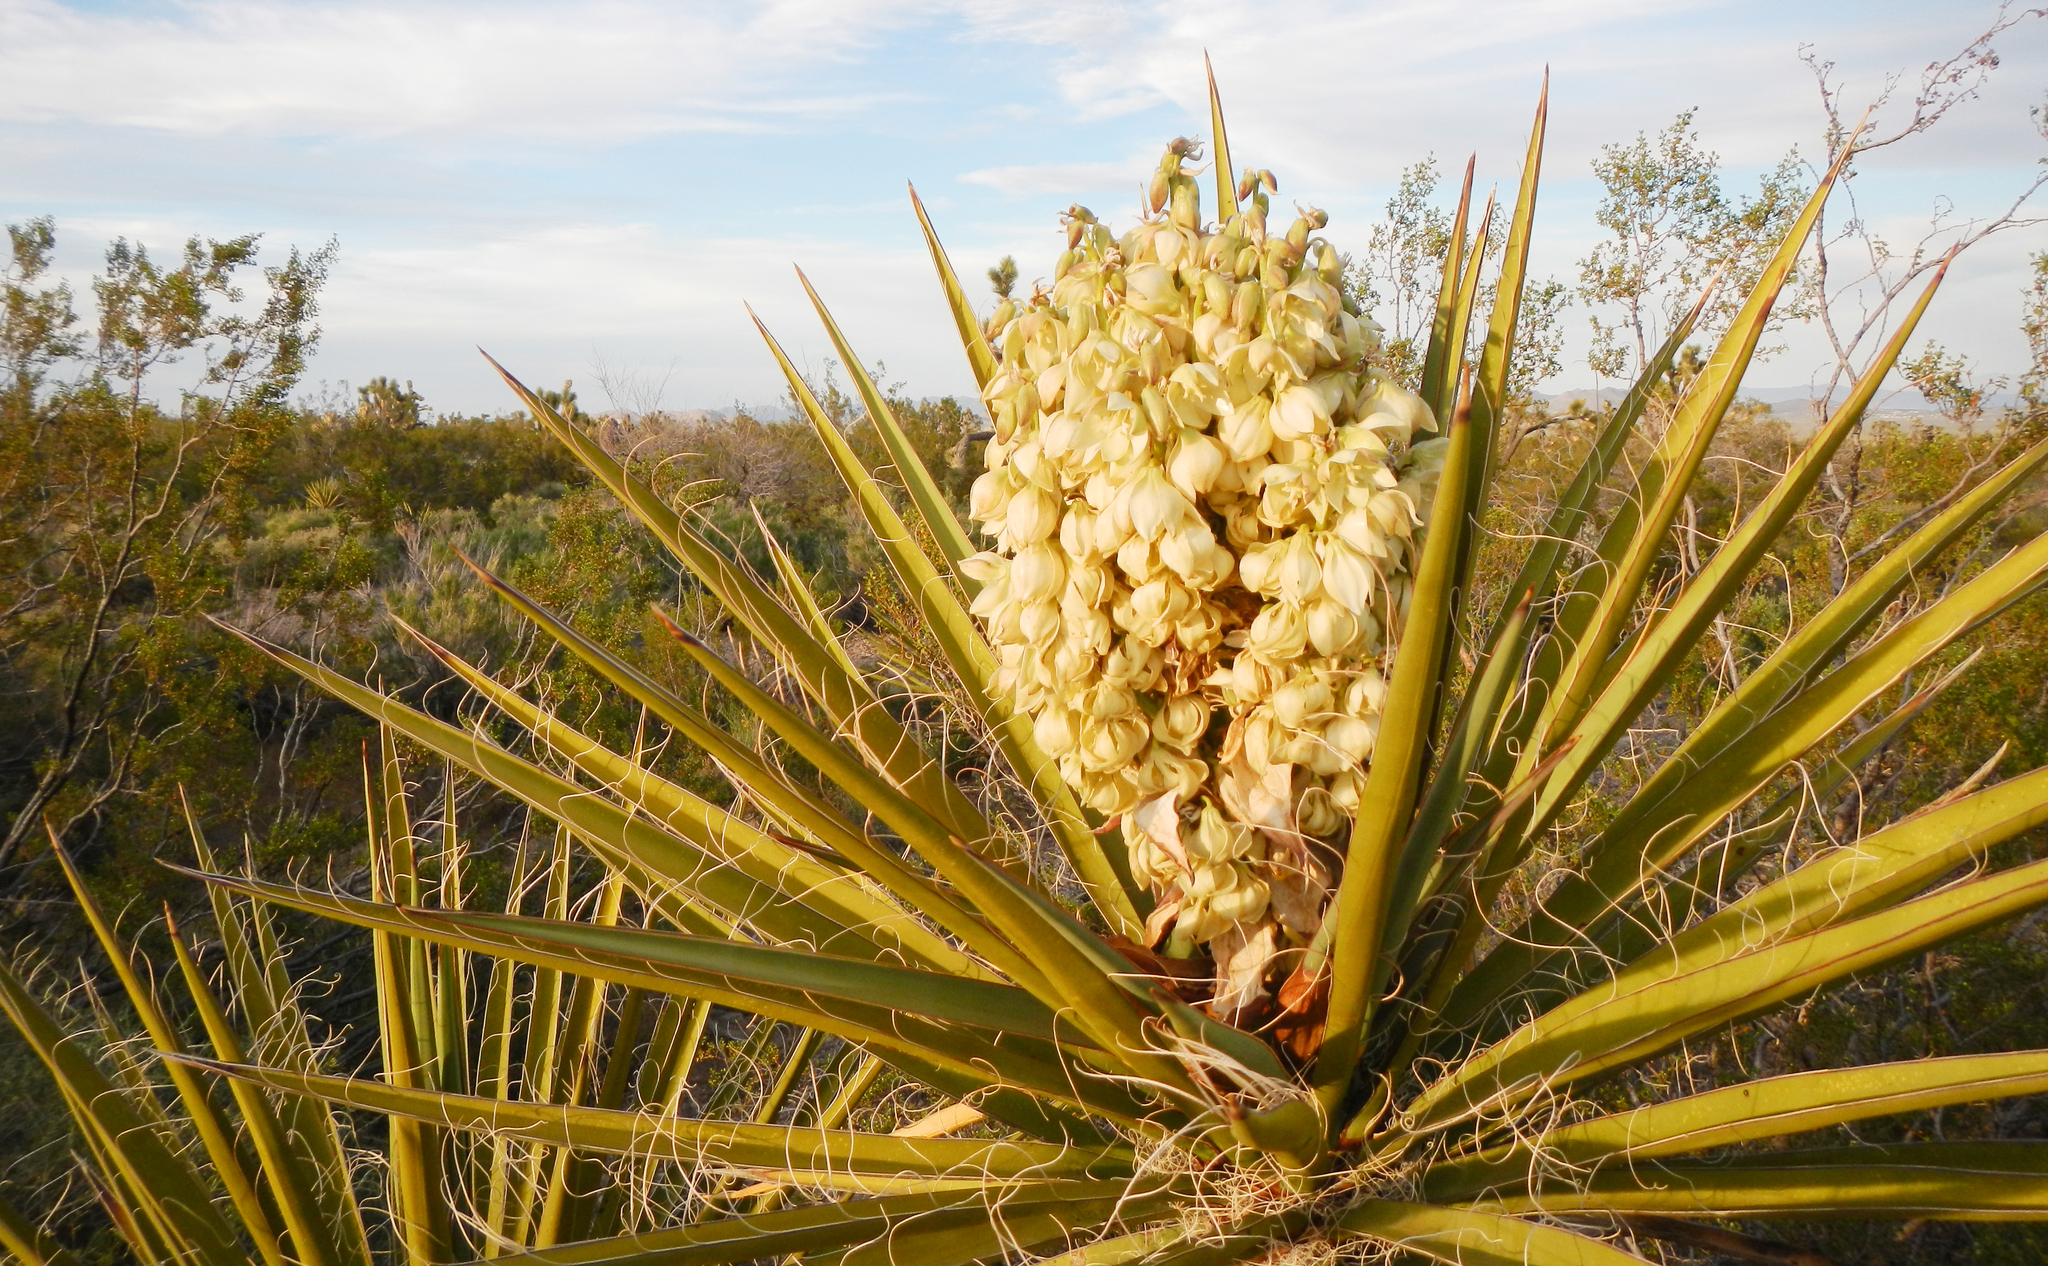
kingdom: Plantae
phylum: Tracheophyta
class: Liliopsida
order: Asparagales
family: Asparagaceae
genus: Yucca
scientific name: Yucca schidigera
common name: Mojave yucca
